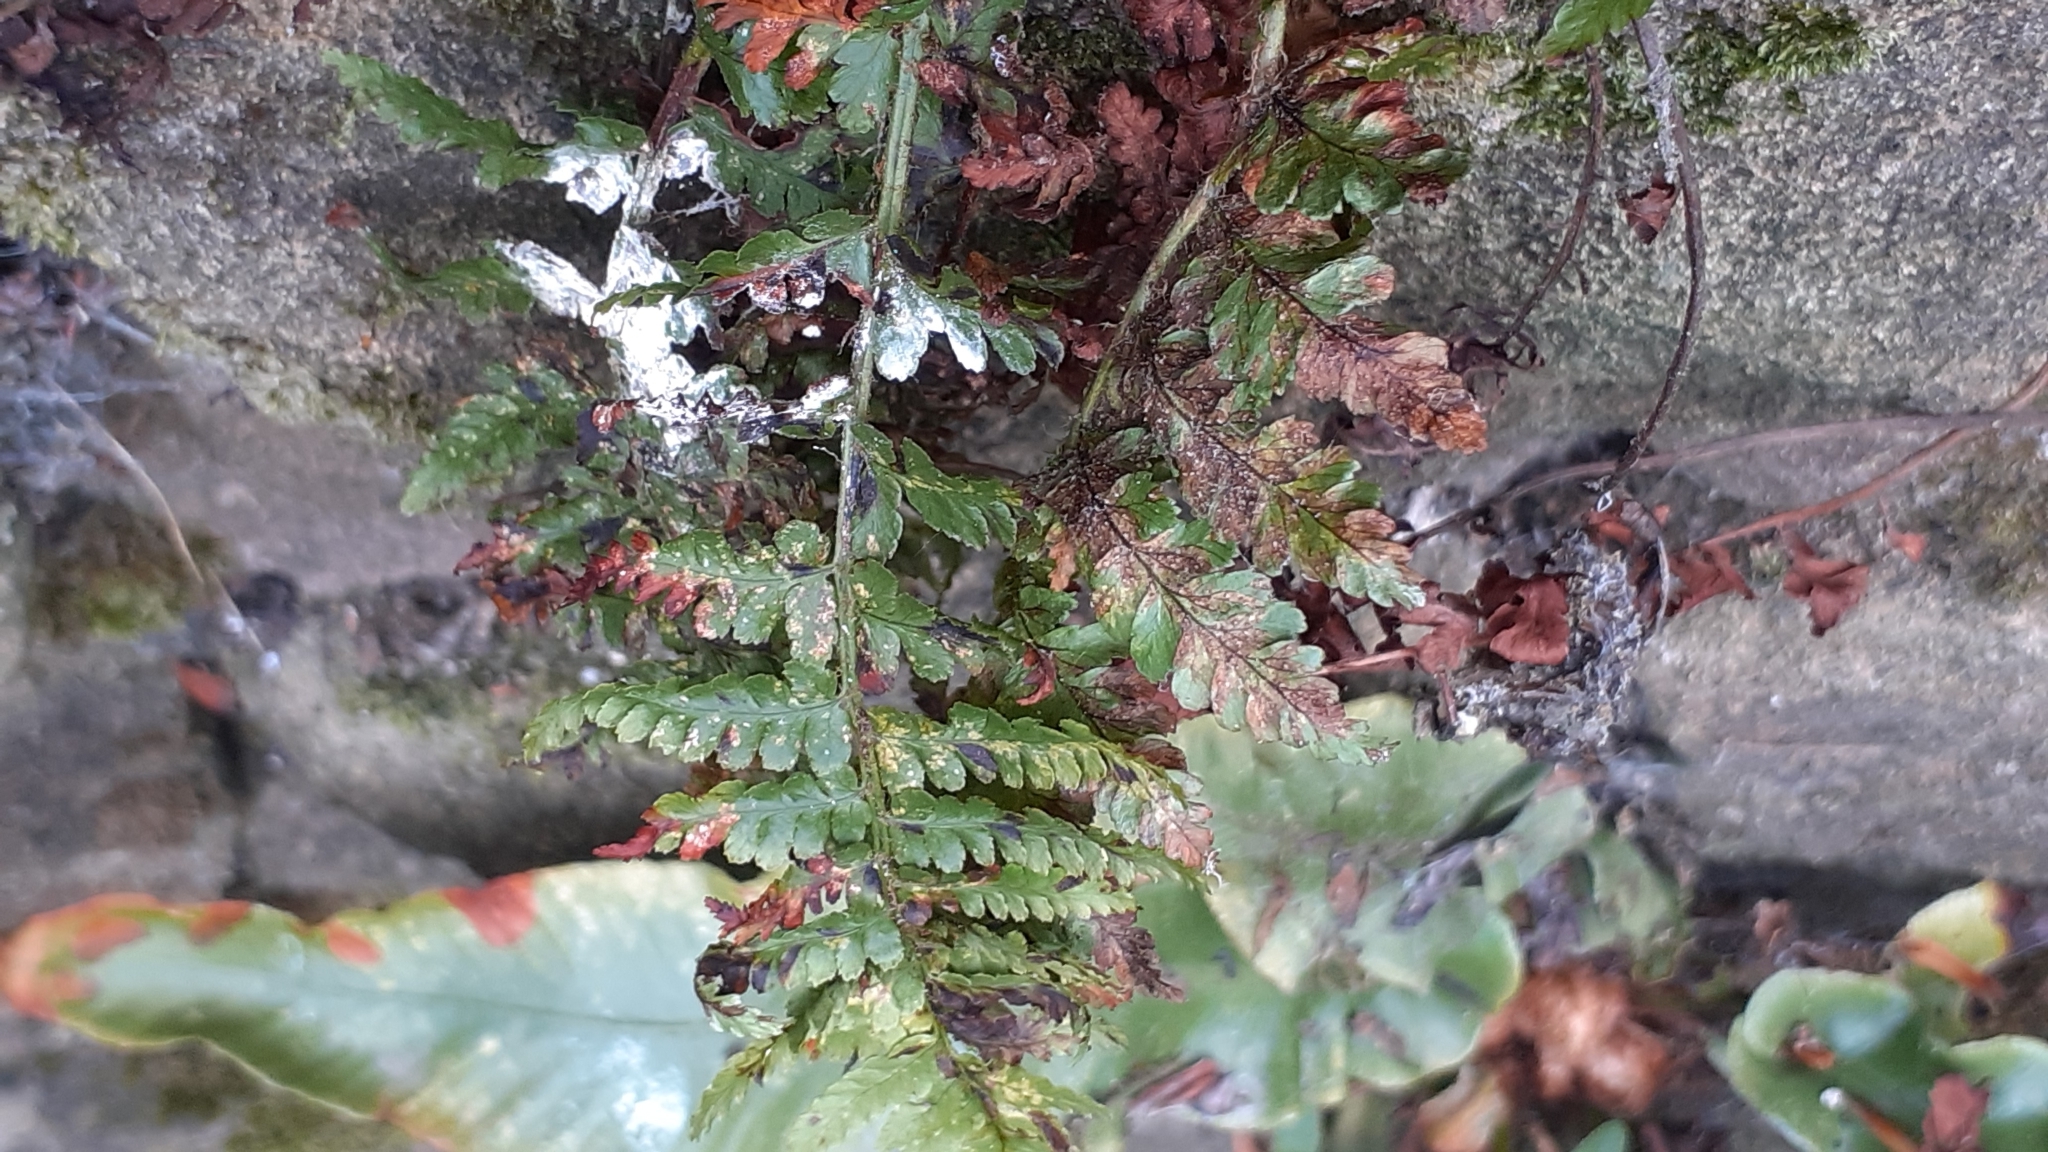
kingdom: Plantae
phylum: Tracheophyta
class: Polypodiopsida
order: Polypodiales
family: Aspleniaceae
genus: Asplenium
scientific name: Asplenium adiantum-nigrum
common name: Black spleenwort
